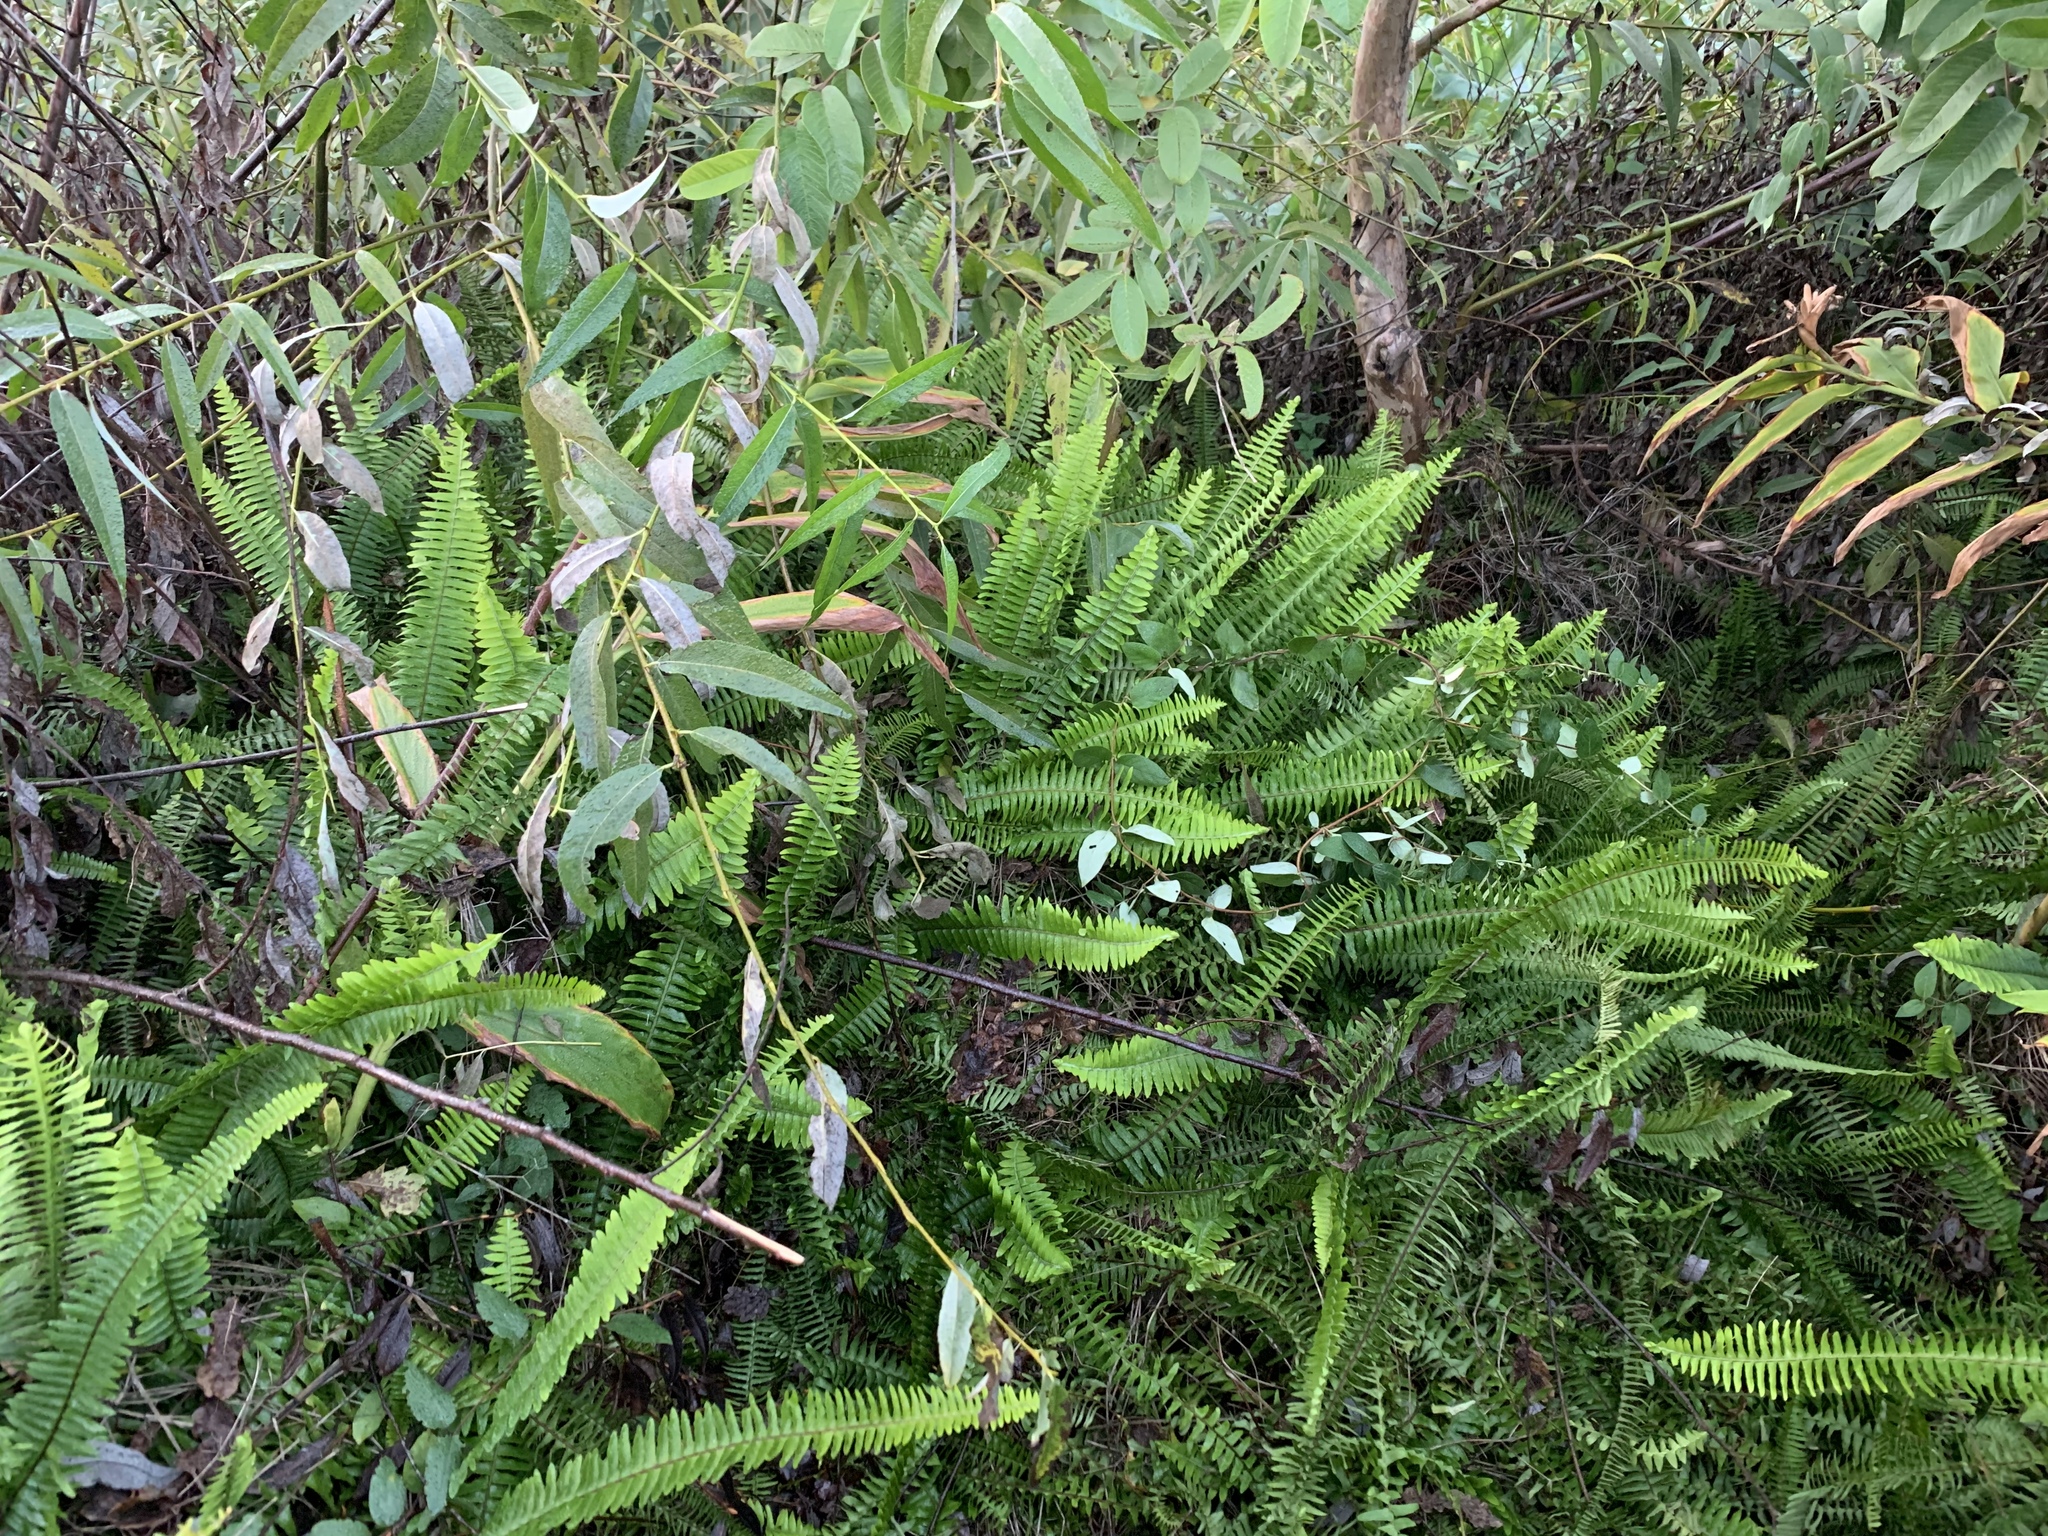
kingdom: Plantae
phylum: Tracheophyta
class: Polypodiopsida
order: Polypodiales
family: Nephrolepidaceae
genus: Nephrolepis
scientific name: Nephrolepis cordifolia
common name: Narrow swordfern
